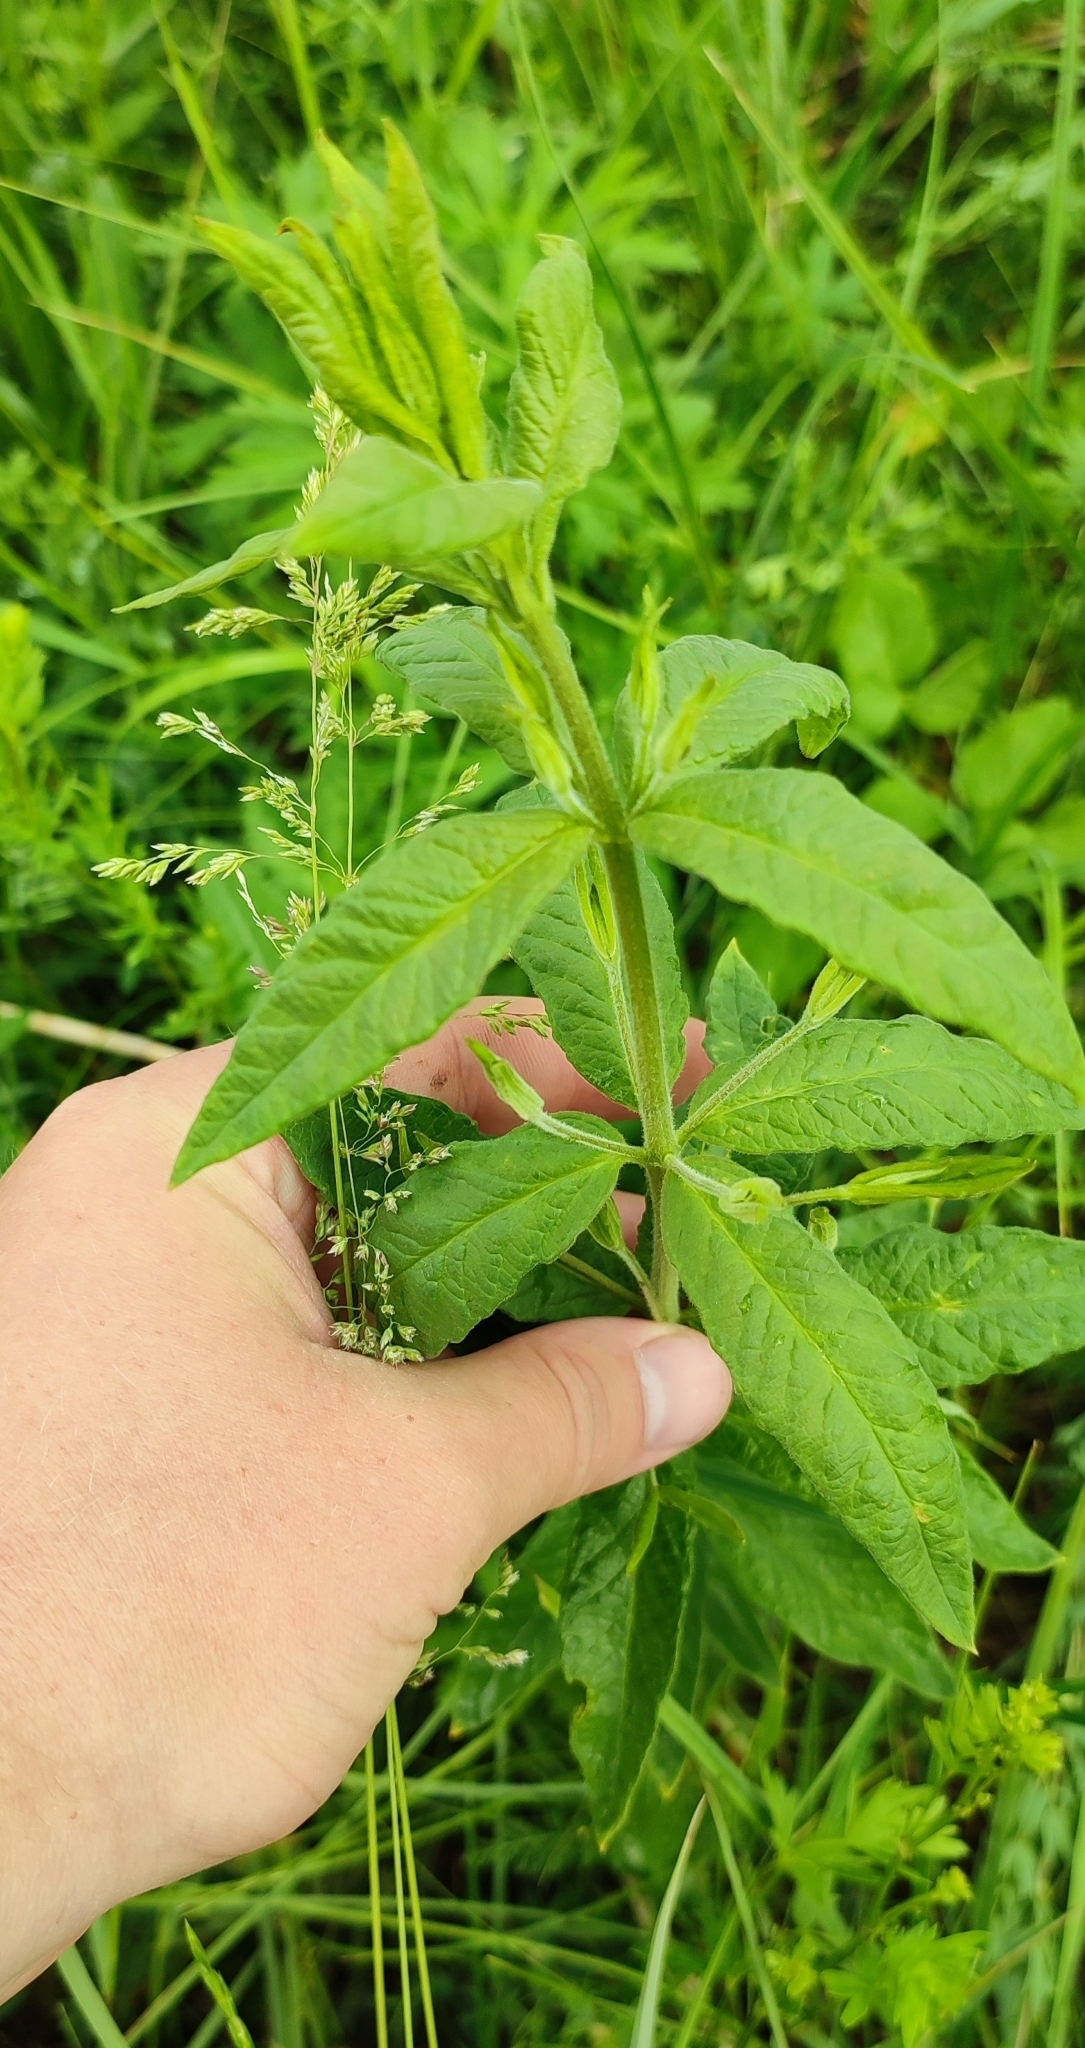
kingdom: Plantae
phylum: Tracheophyta
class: Magnoliopsida
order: Ericales
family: Primulaceae
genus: Lysimachia
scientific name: Lysimachia vulgaris
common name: Yellow loosestrife
